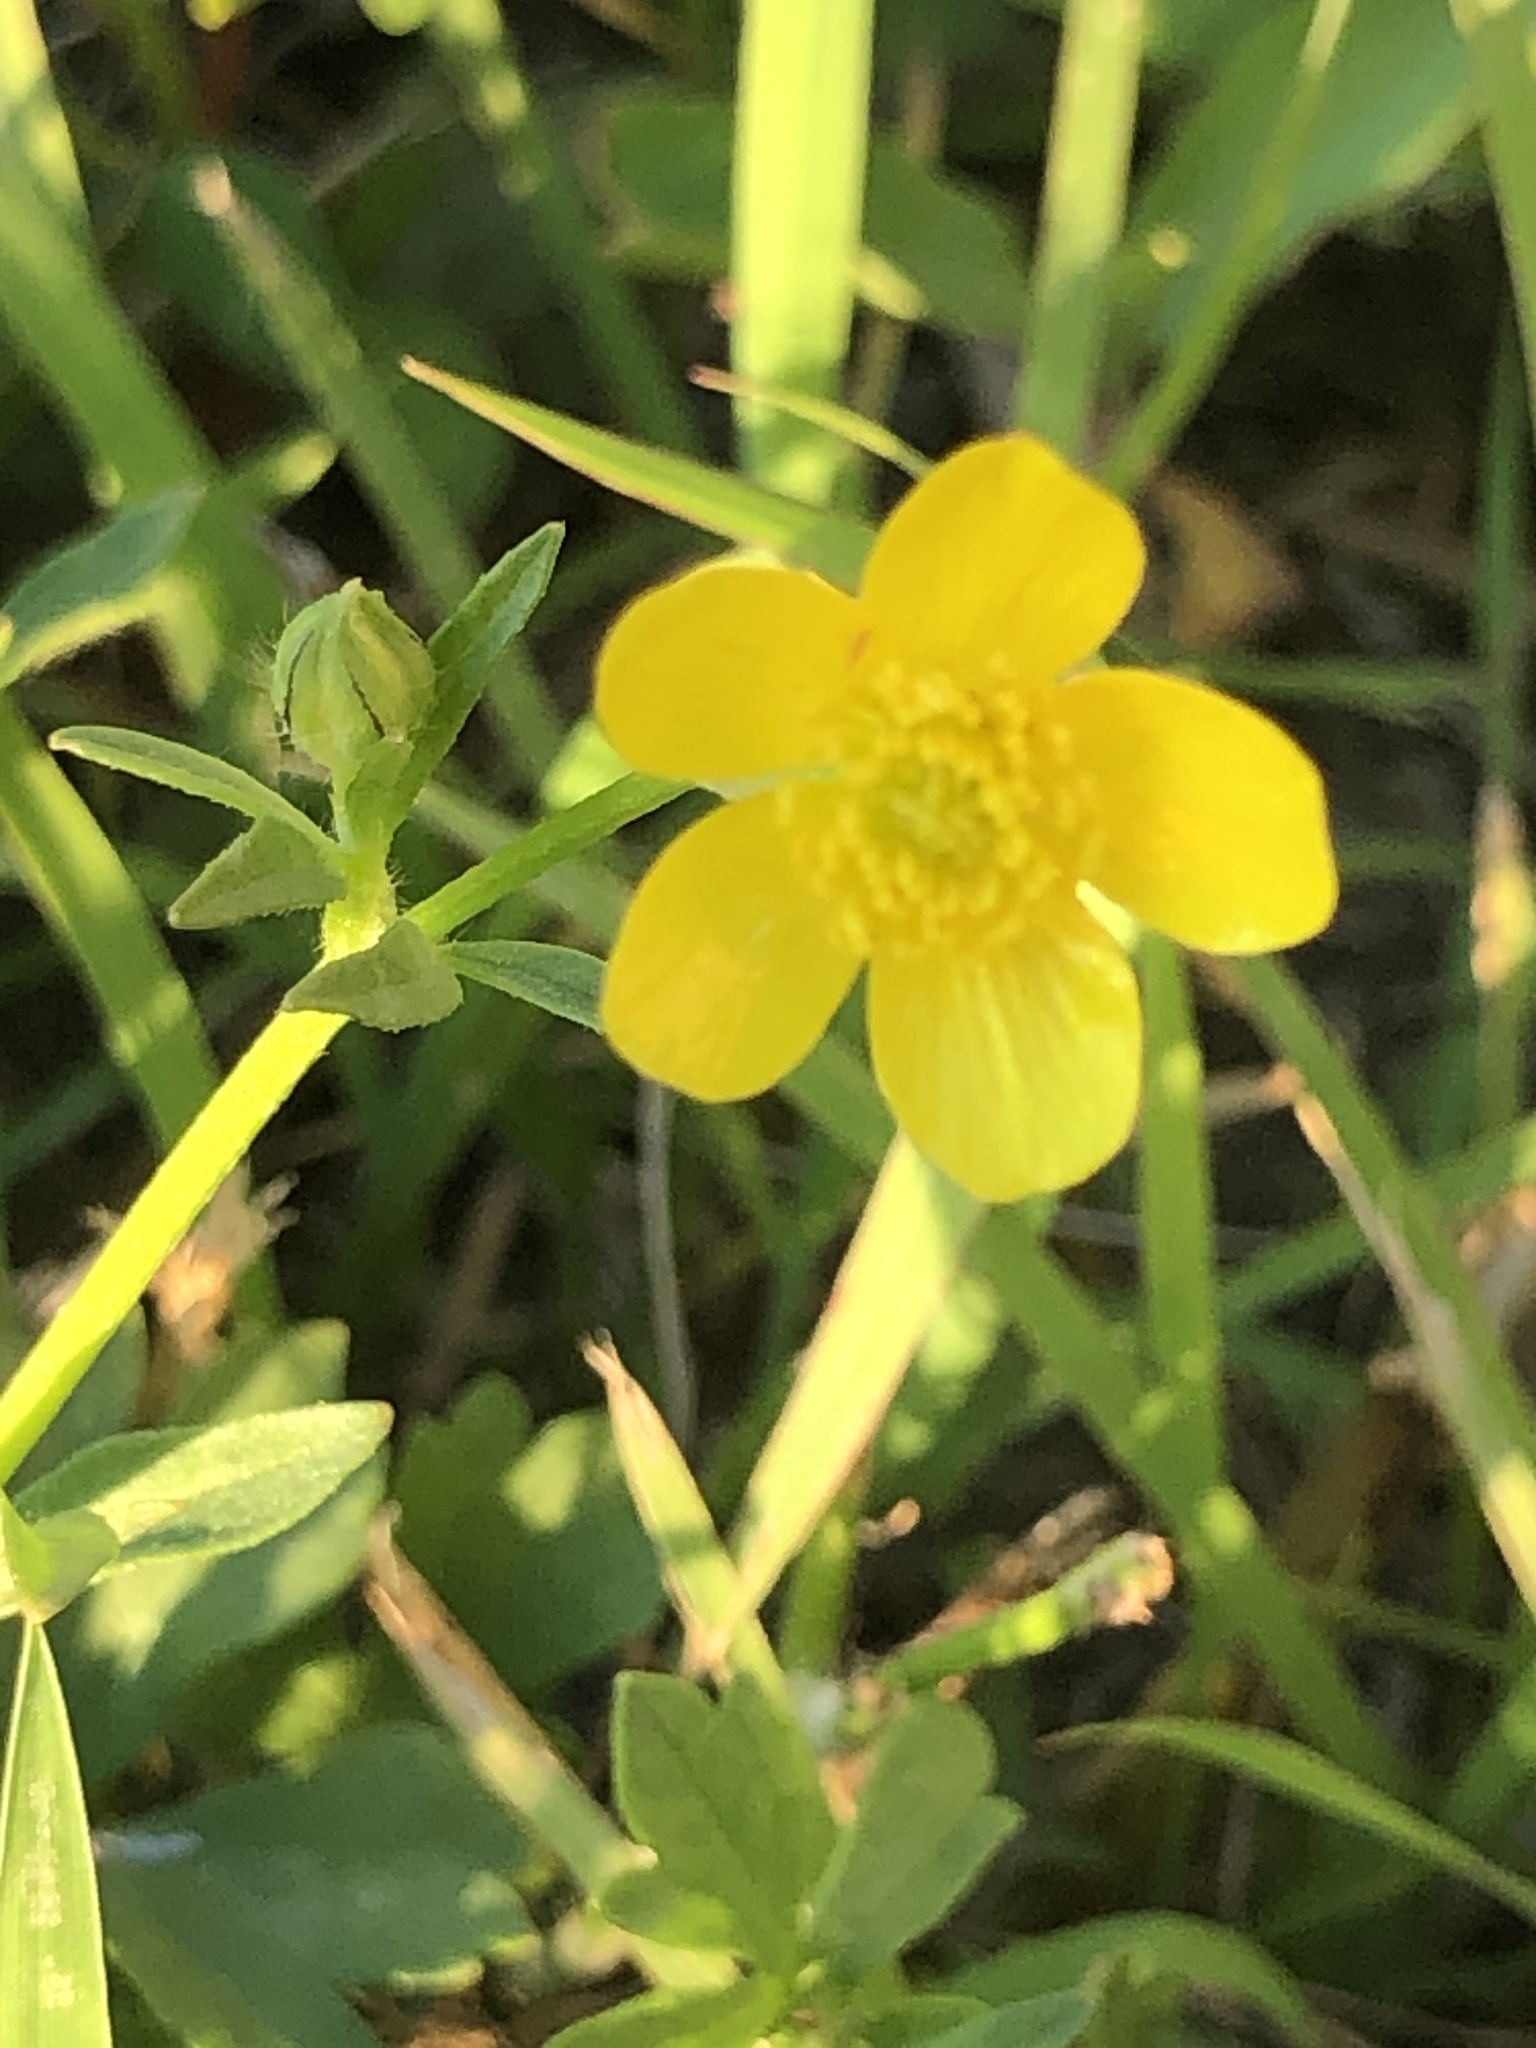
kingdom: Plantae
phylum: Tracheophyta
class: Magnoliopsida
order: Ranunculales
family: Ranunculaceae
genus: Ranunculus
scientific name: Ranunculus sardous
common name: Hairy buttercup
